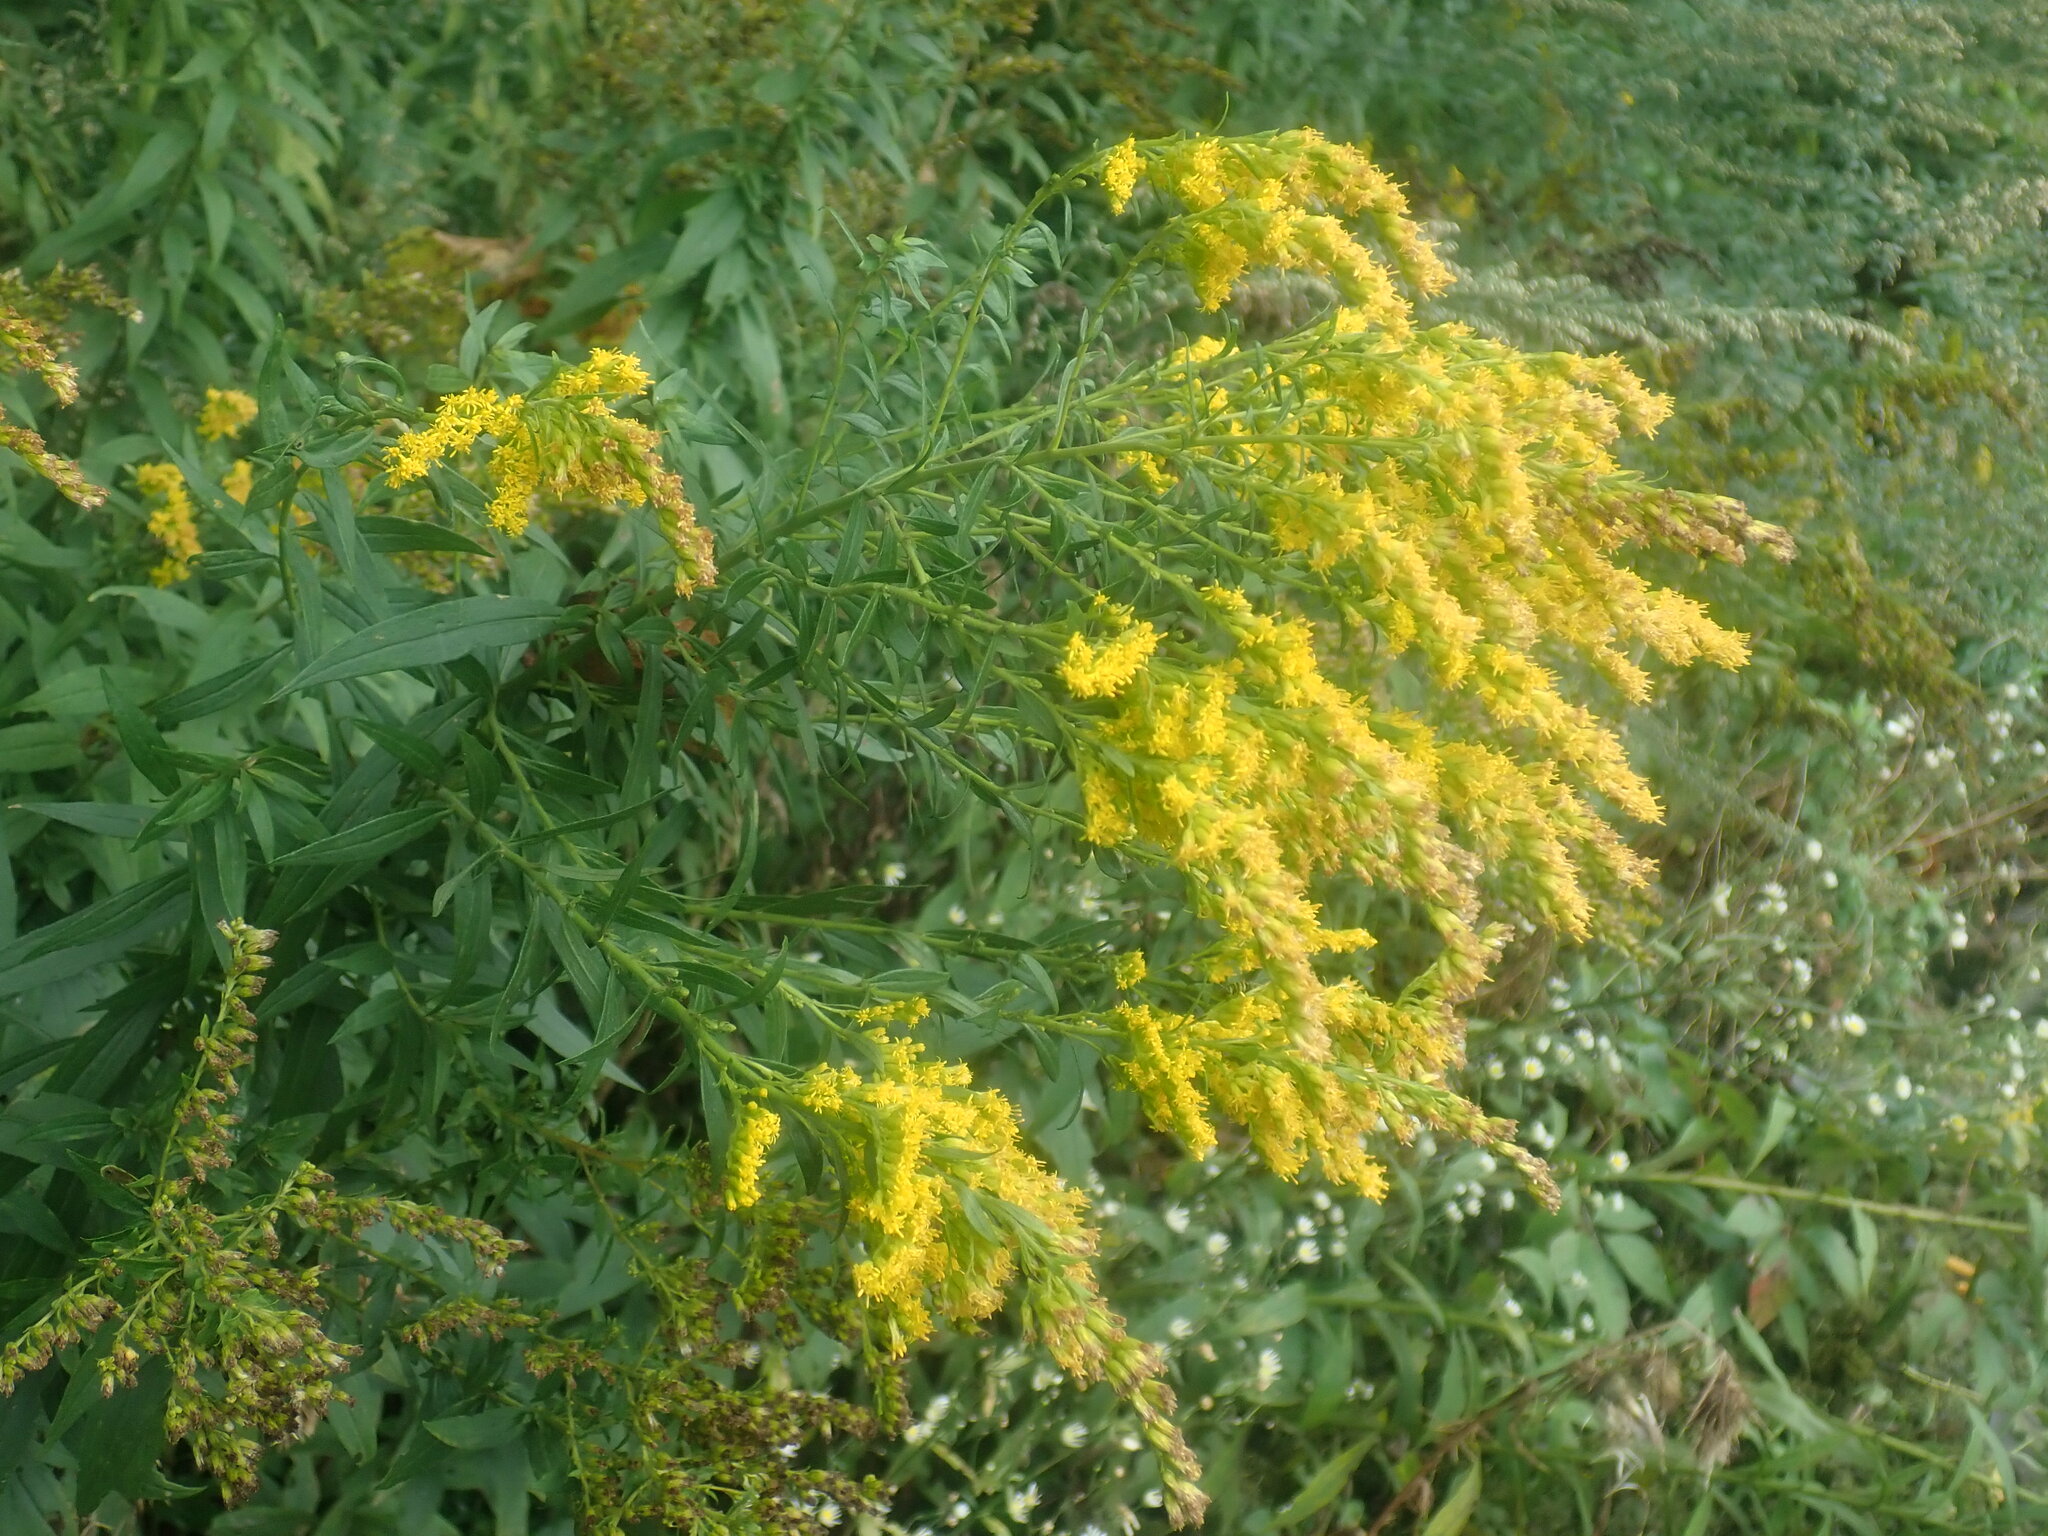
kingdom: Plantae
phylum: Tracheophyta
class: Magnoliopsida
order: Asterales
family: Asteraceae
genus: Solidago
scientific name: Solidago altissima
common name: Late goldenrod
